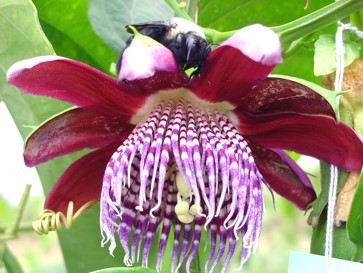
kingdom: Plantae
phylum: Tracheophyta
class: Magnoliopsida
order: Malpighiales
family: Passifloraceae
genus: Passiflora
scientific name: Passiflora alata
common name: Wing-stemmed passion flower
